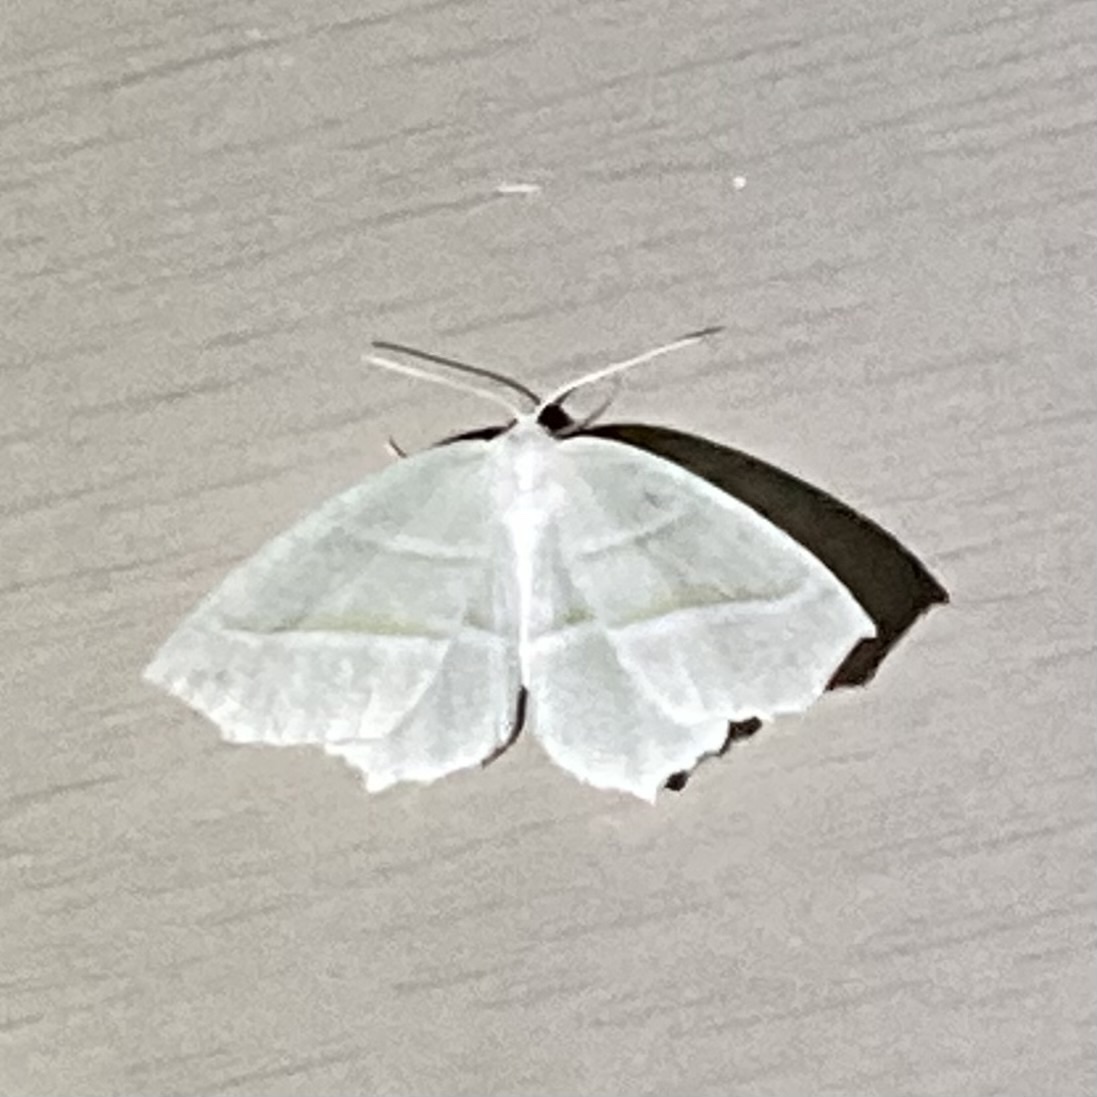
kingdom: Animalia
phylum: Arthropoda
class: Insecta
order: Lepidoptera
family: Geometridae
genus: Campaea
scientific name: Campaea perlata
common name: Fringed looper
